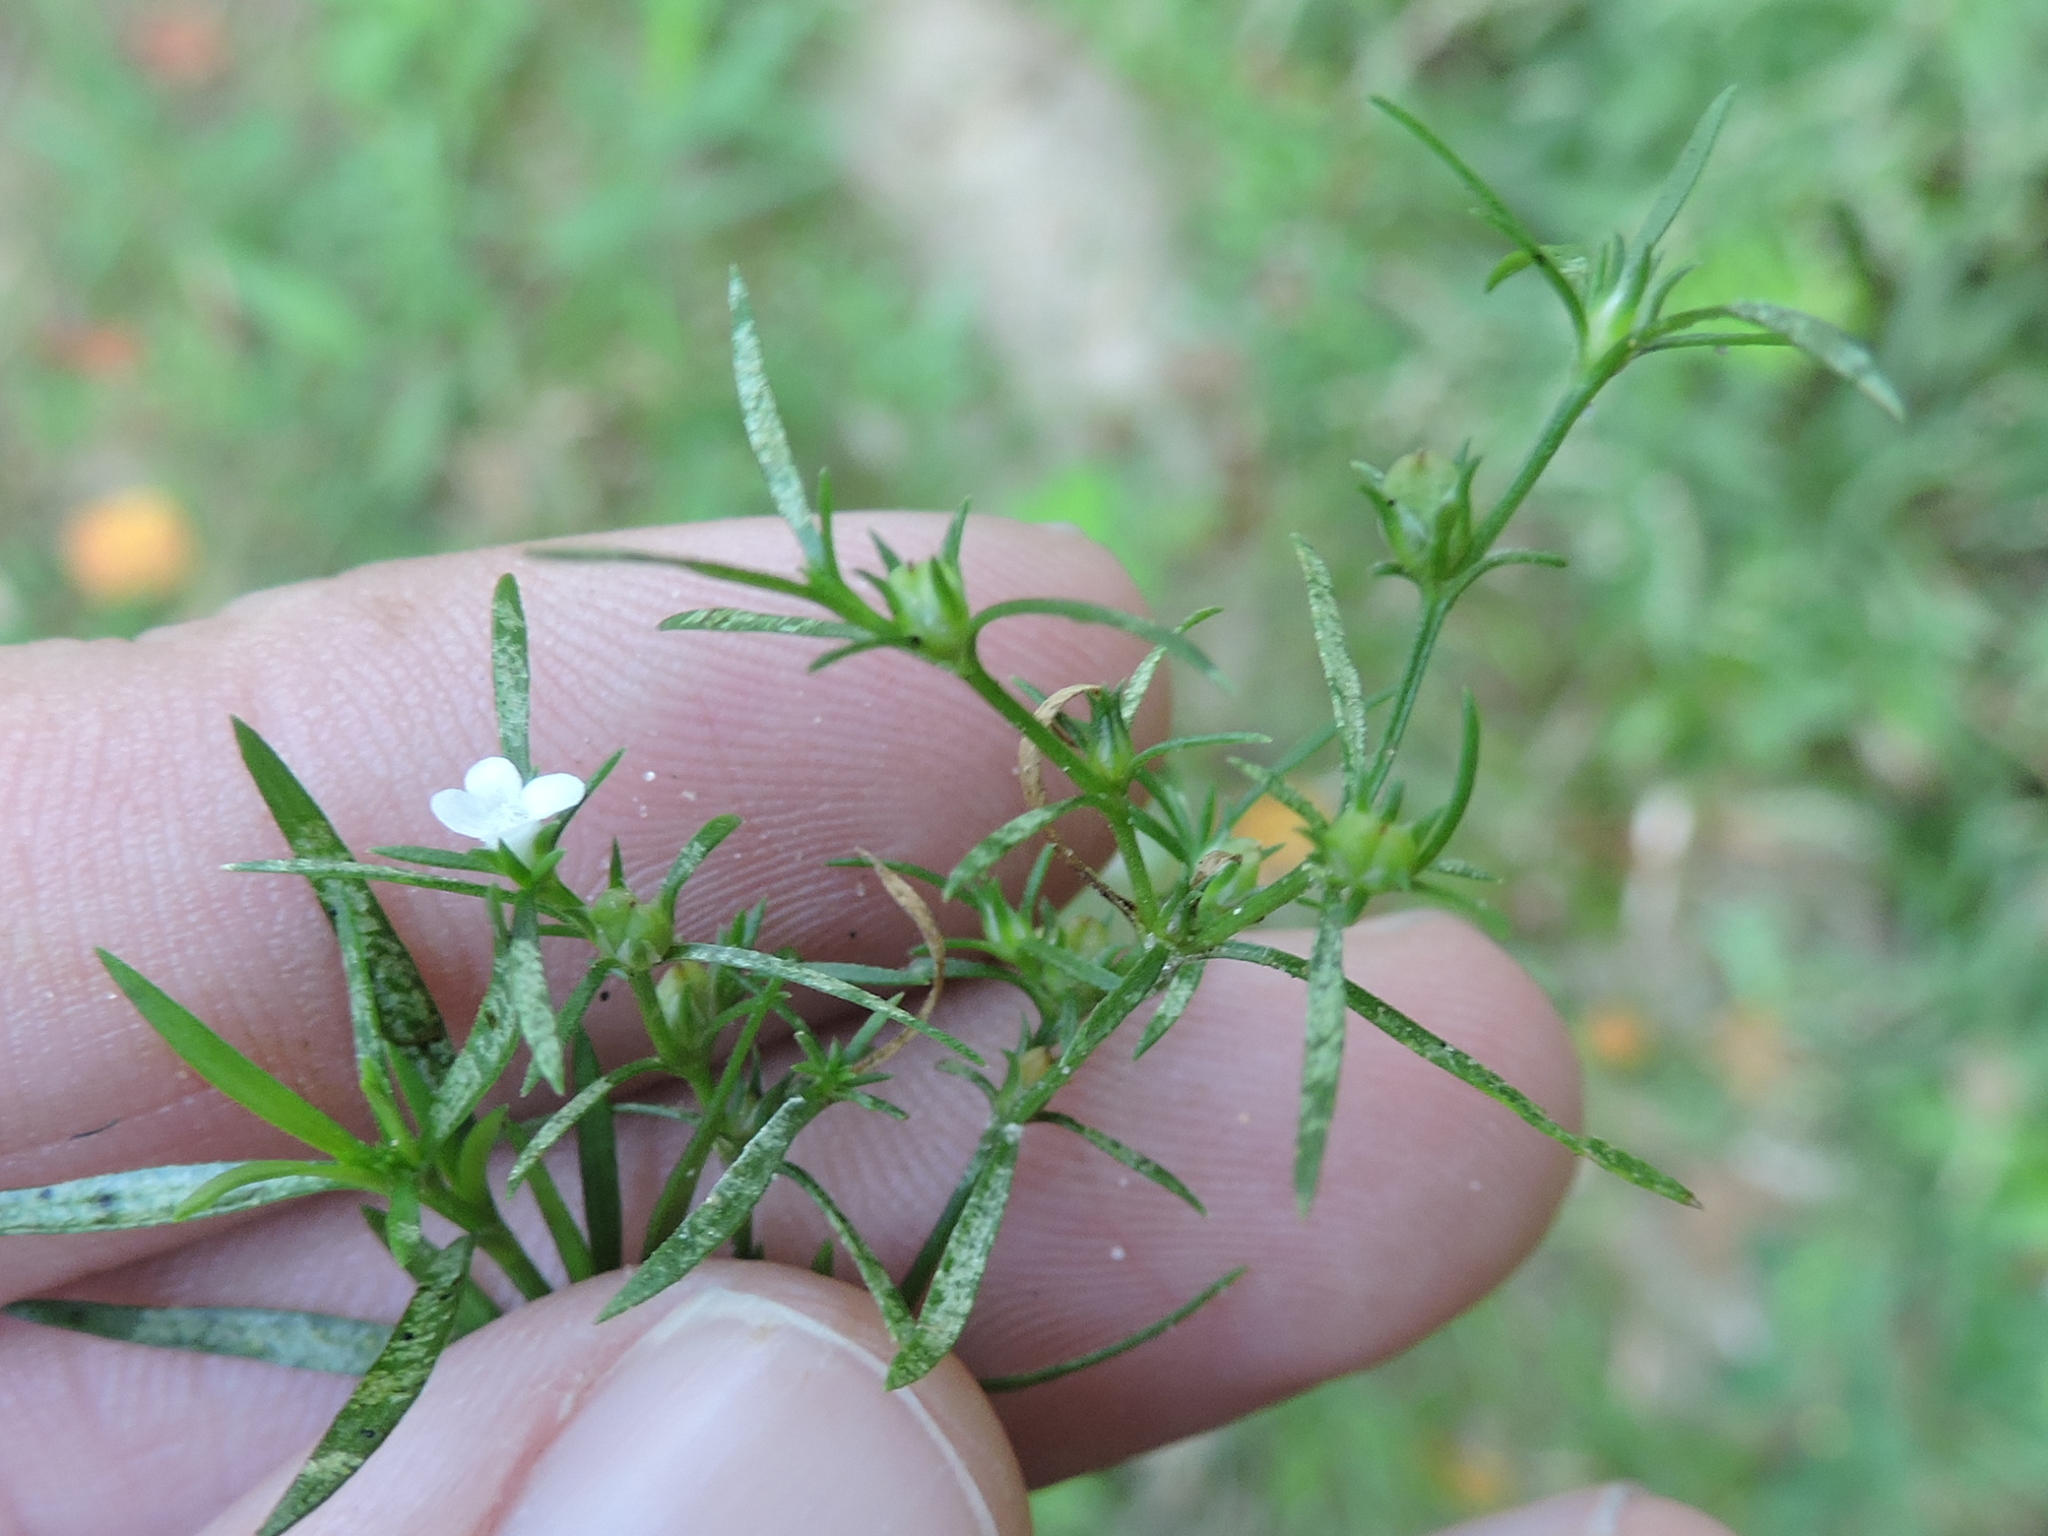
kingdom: Plantae
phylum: Tracheophyta
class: Magnoliopsida
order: Lamiales
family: Tetrachondraceae
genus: Polypremum
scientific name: Polypremum procumbens
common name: Juniper-leaf
